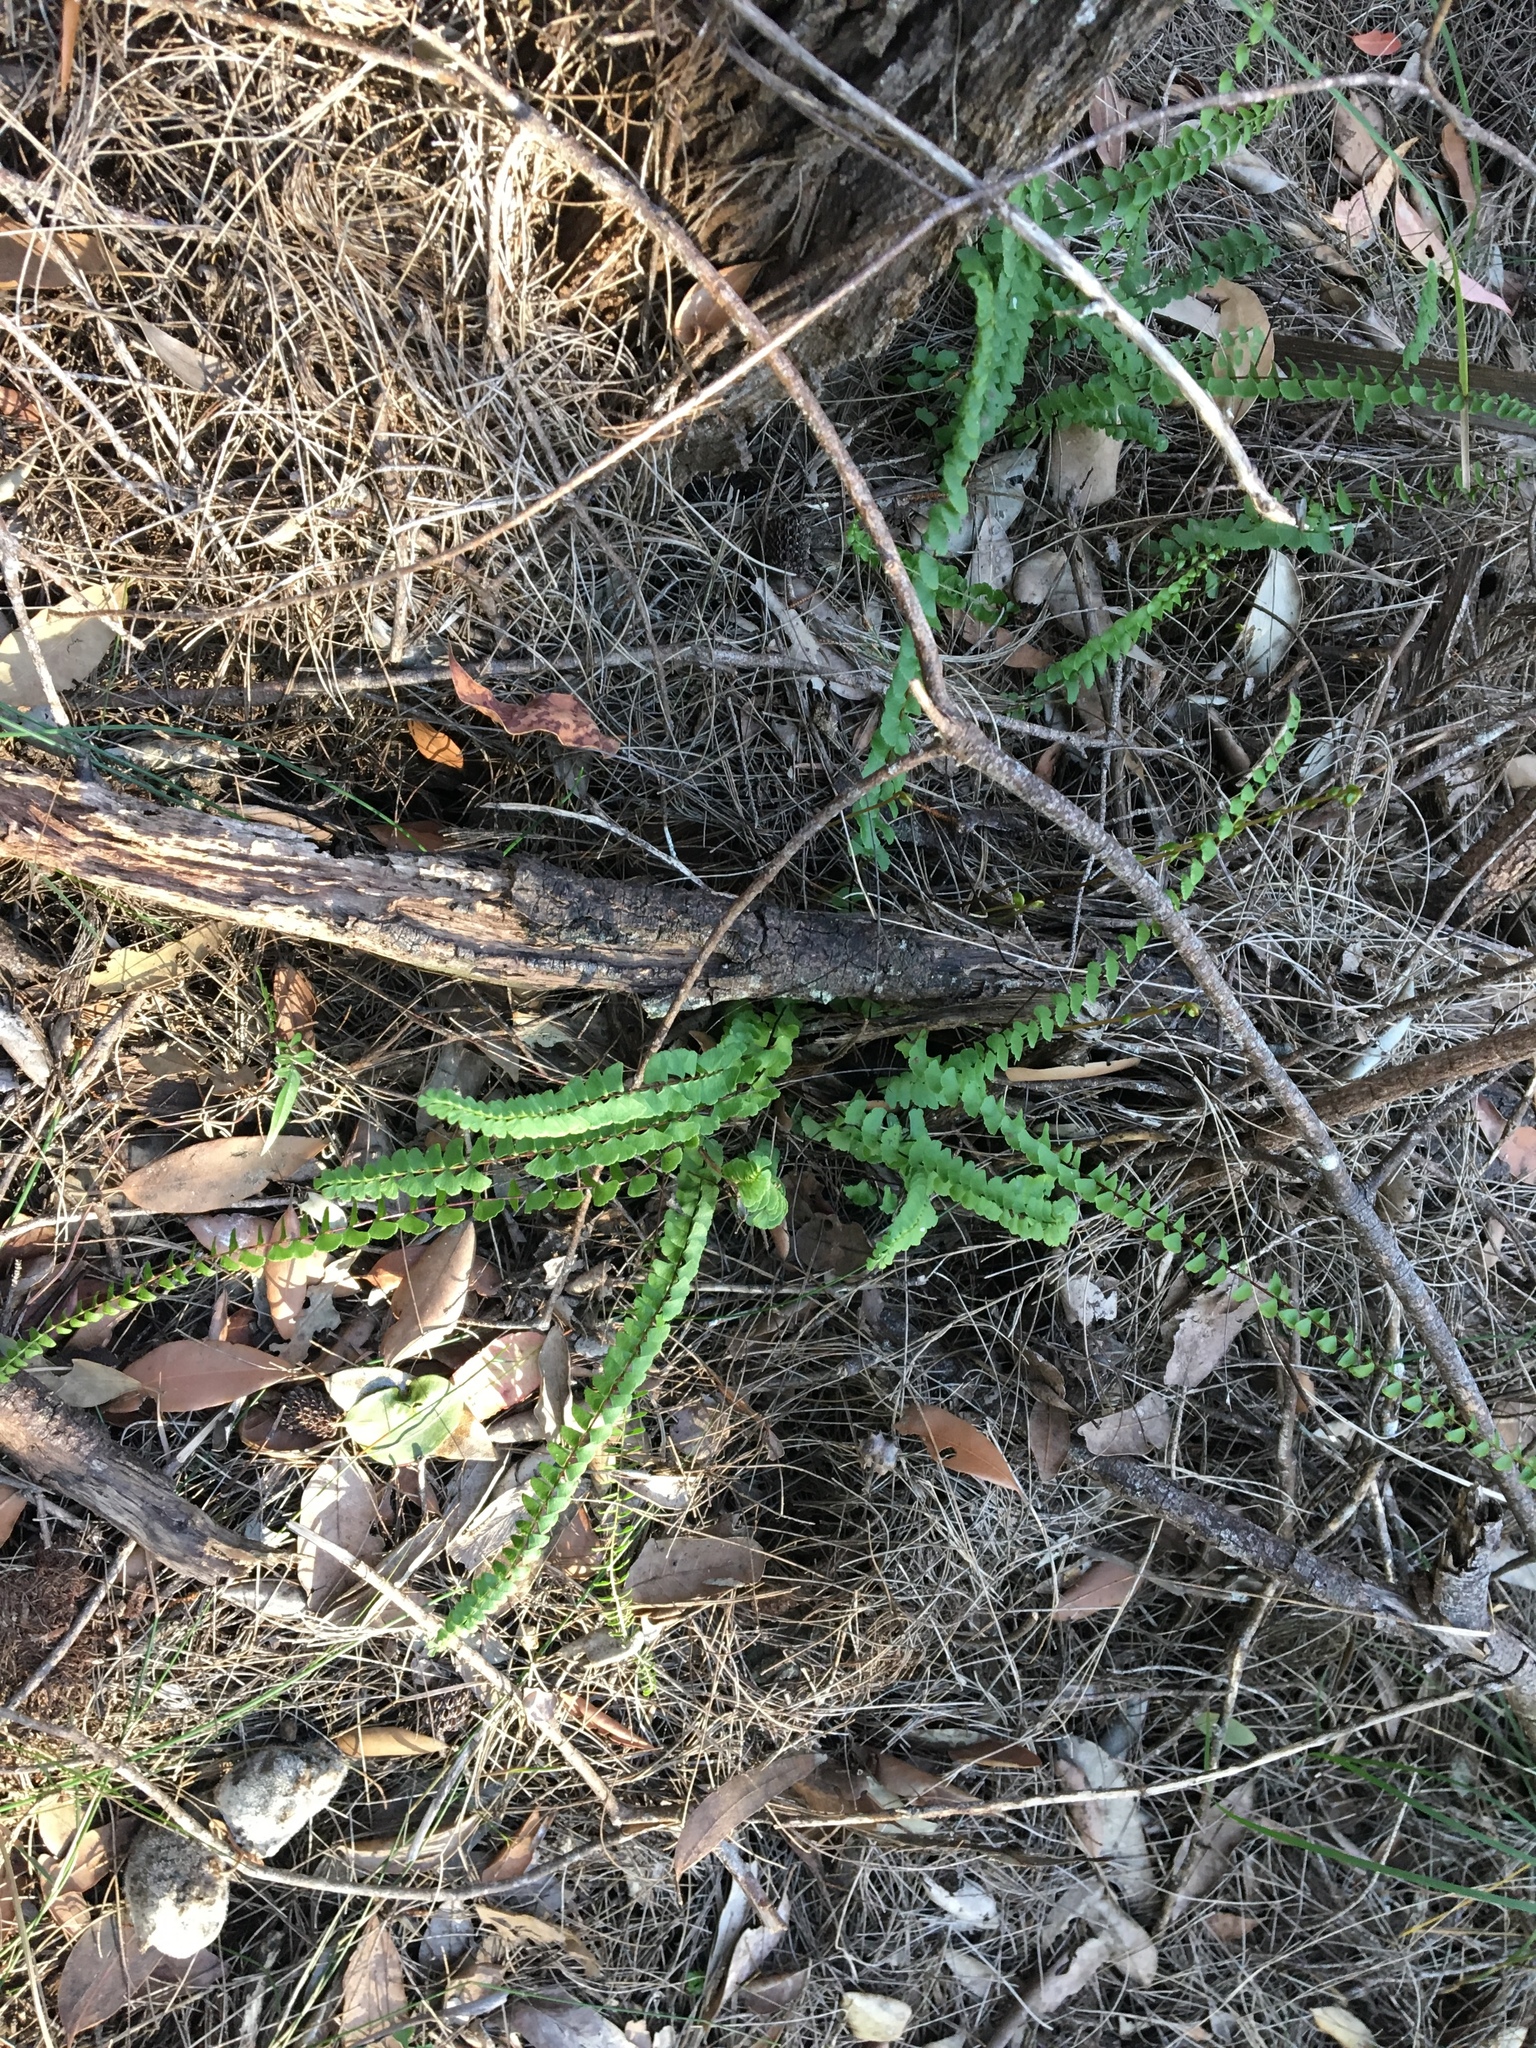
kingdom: Plantae
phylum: Tracheophyta
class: Polypodiopsida
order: Polypodiales
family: Lindsaeaceae
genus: Lindsaea
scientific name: Lindsaea linearis
